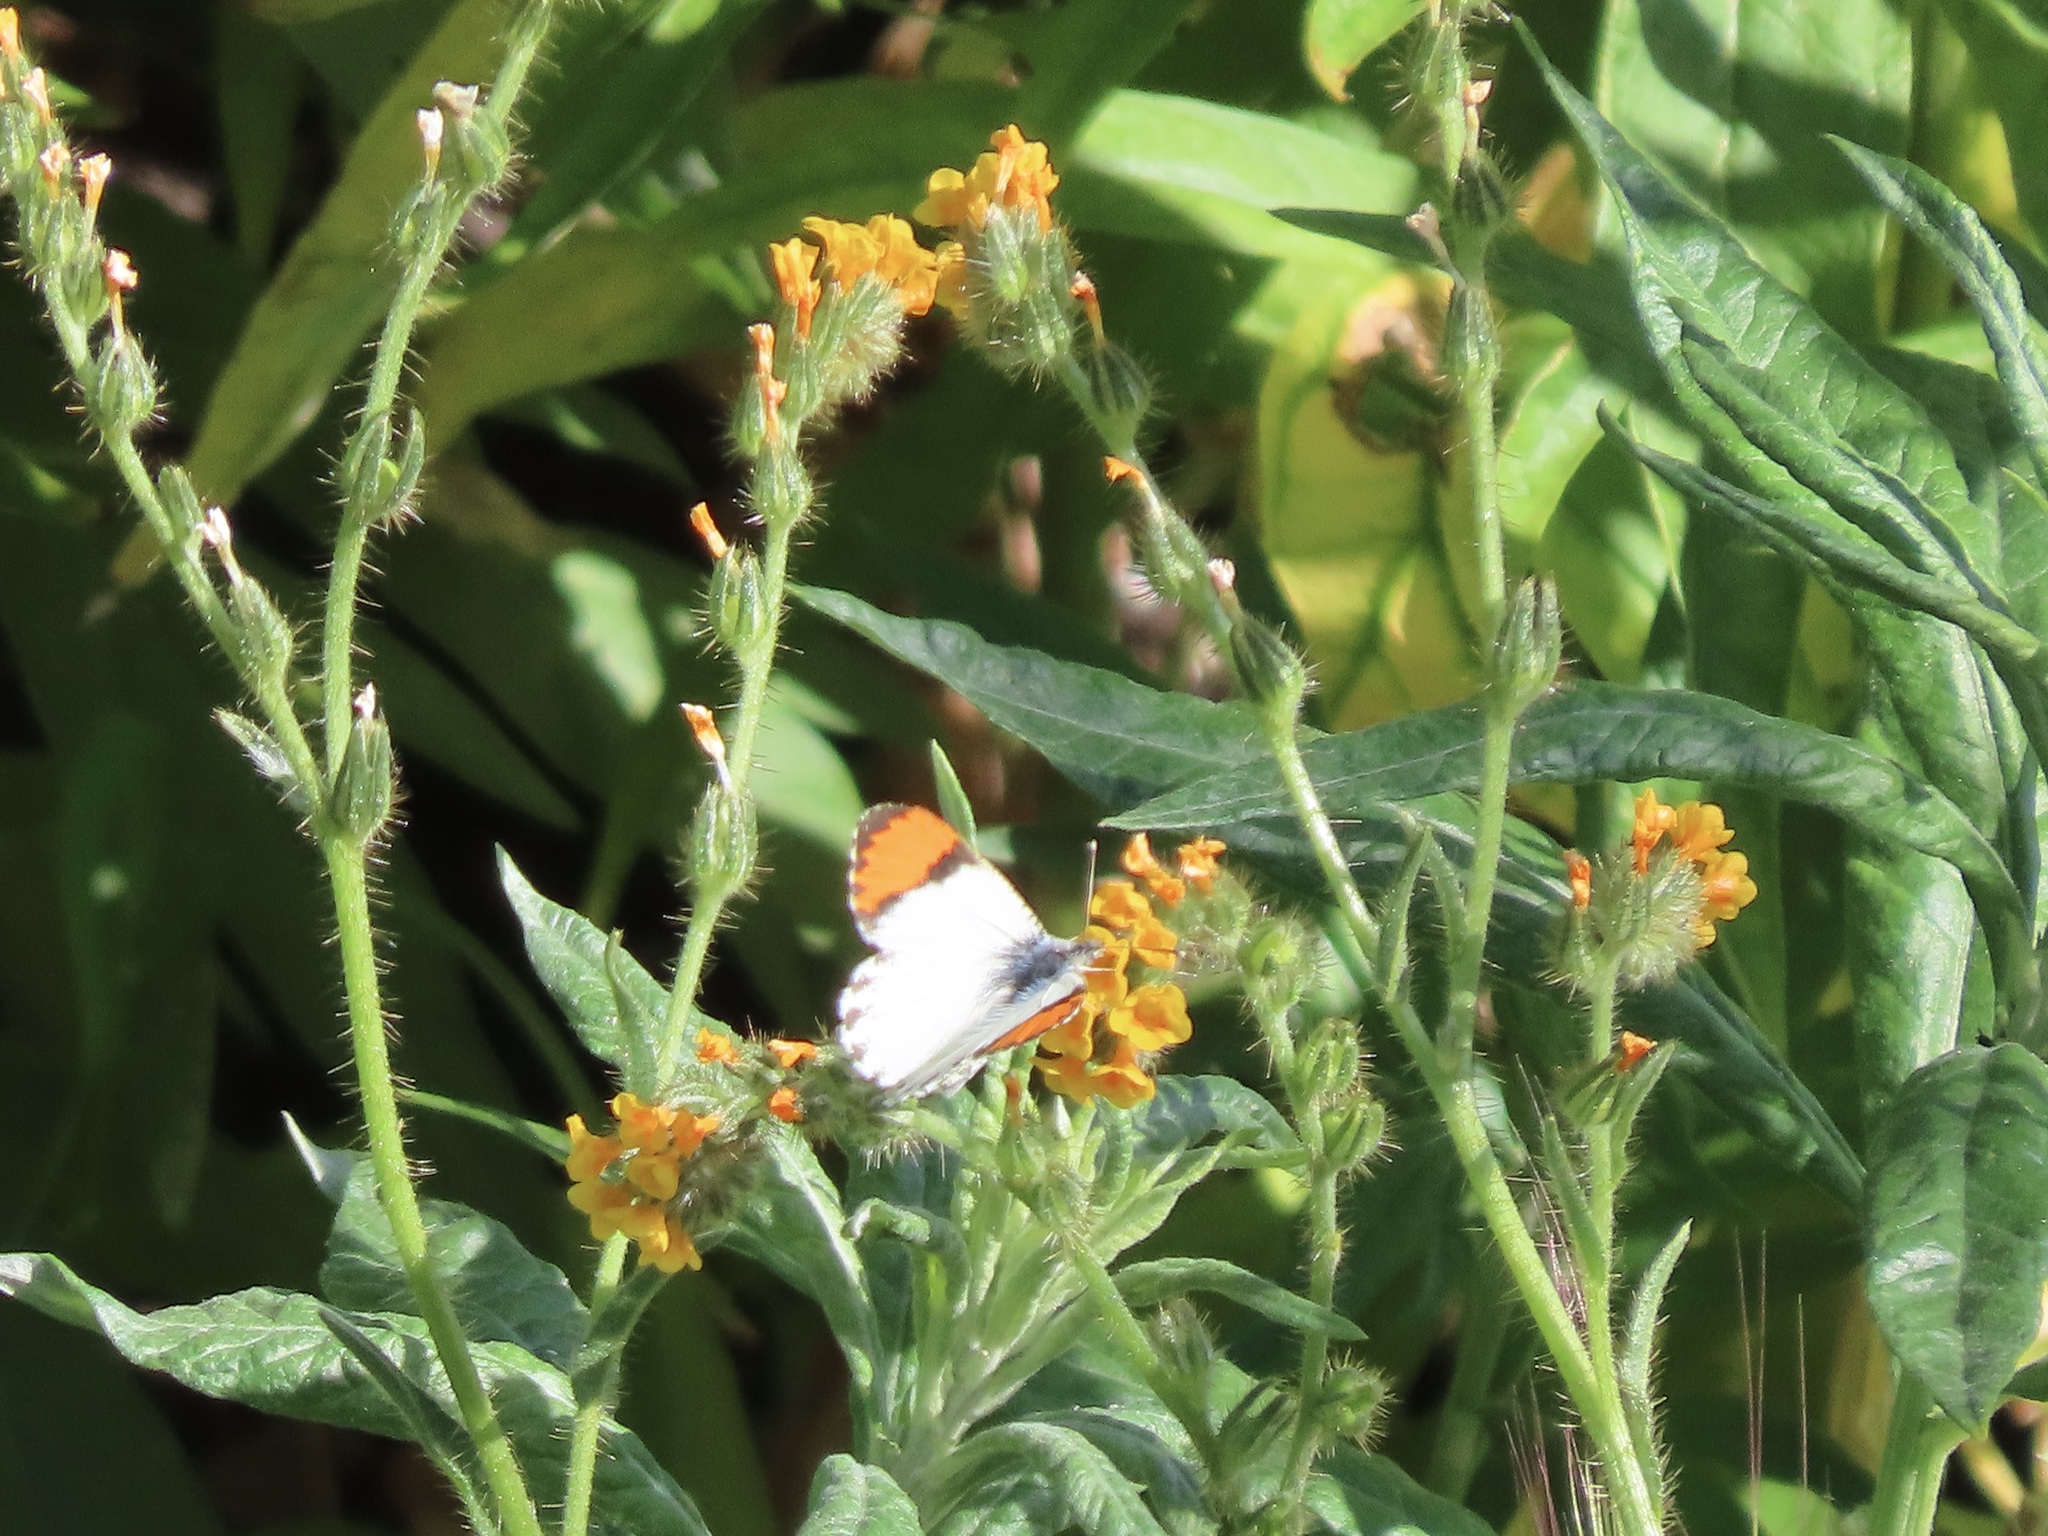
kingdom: Animalia
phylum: Arthropoda
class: Insecta
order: Lepidoptera
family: Pieridae
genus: Anthocharis
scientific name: Anthocharis sara
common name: Sara's orangetip
